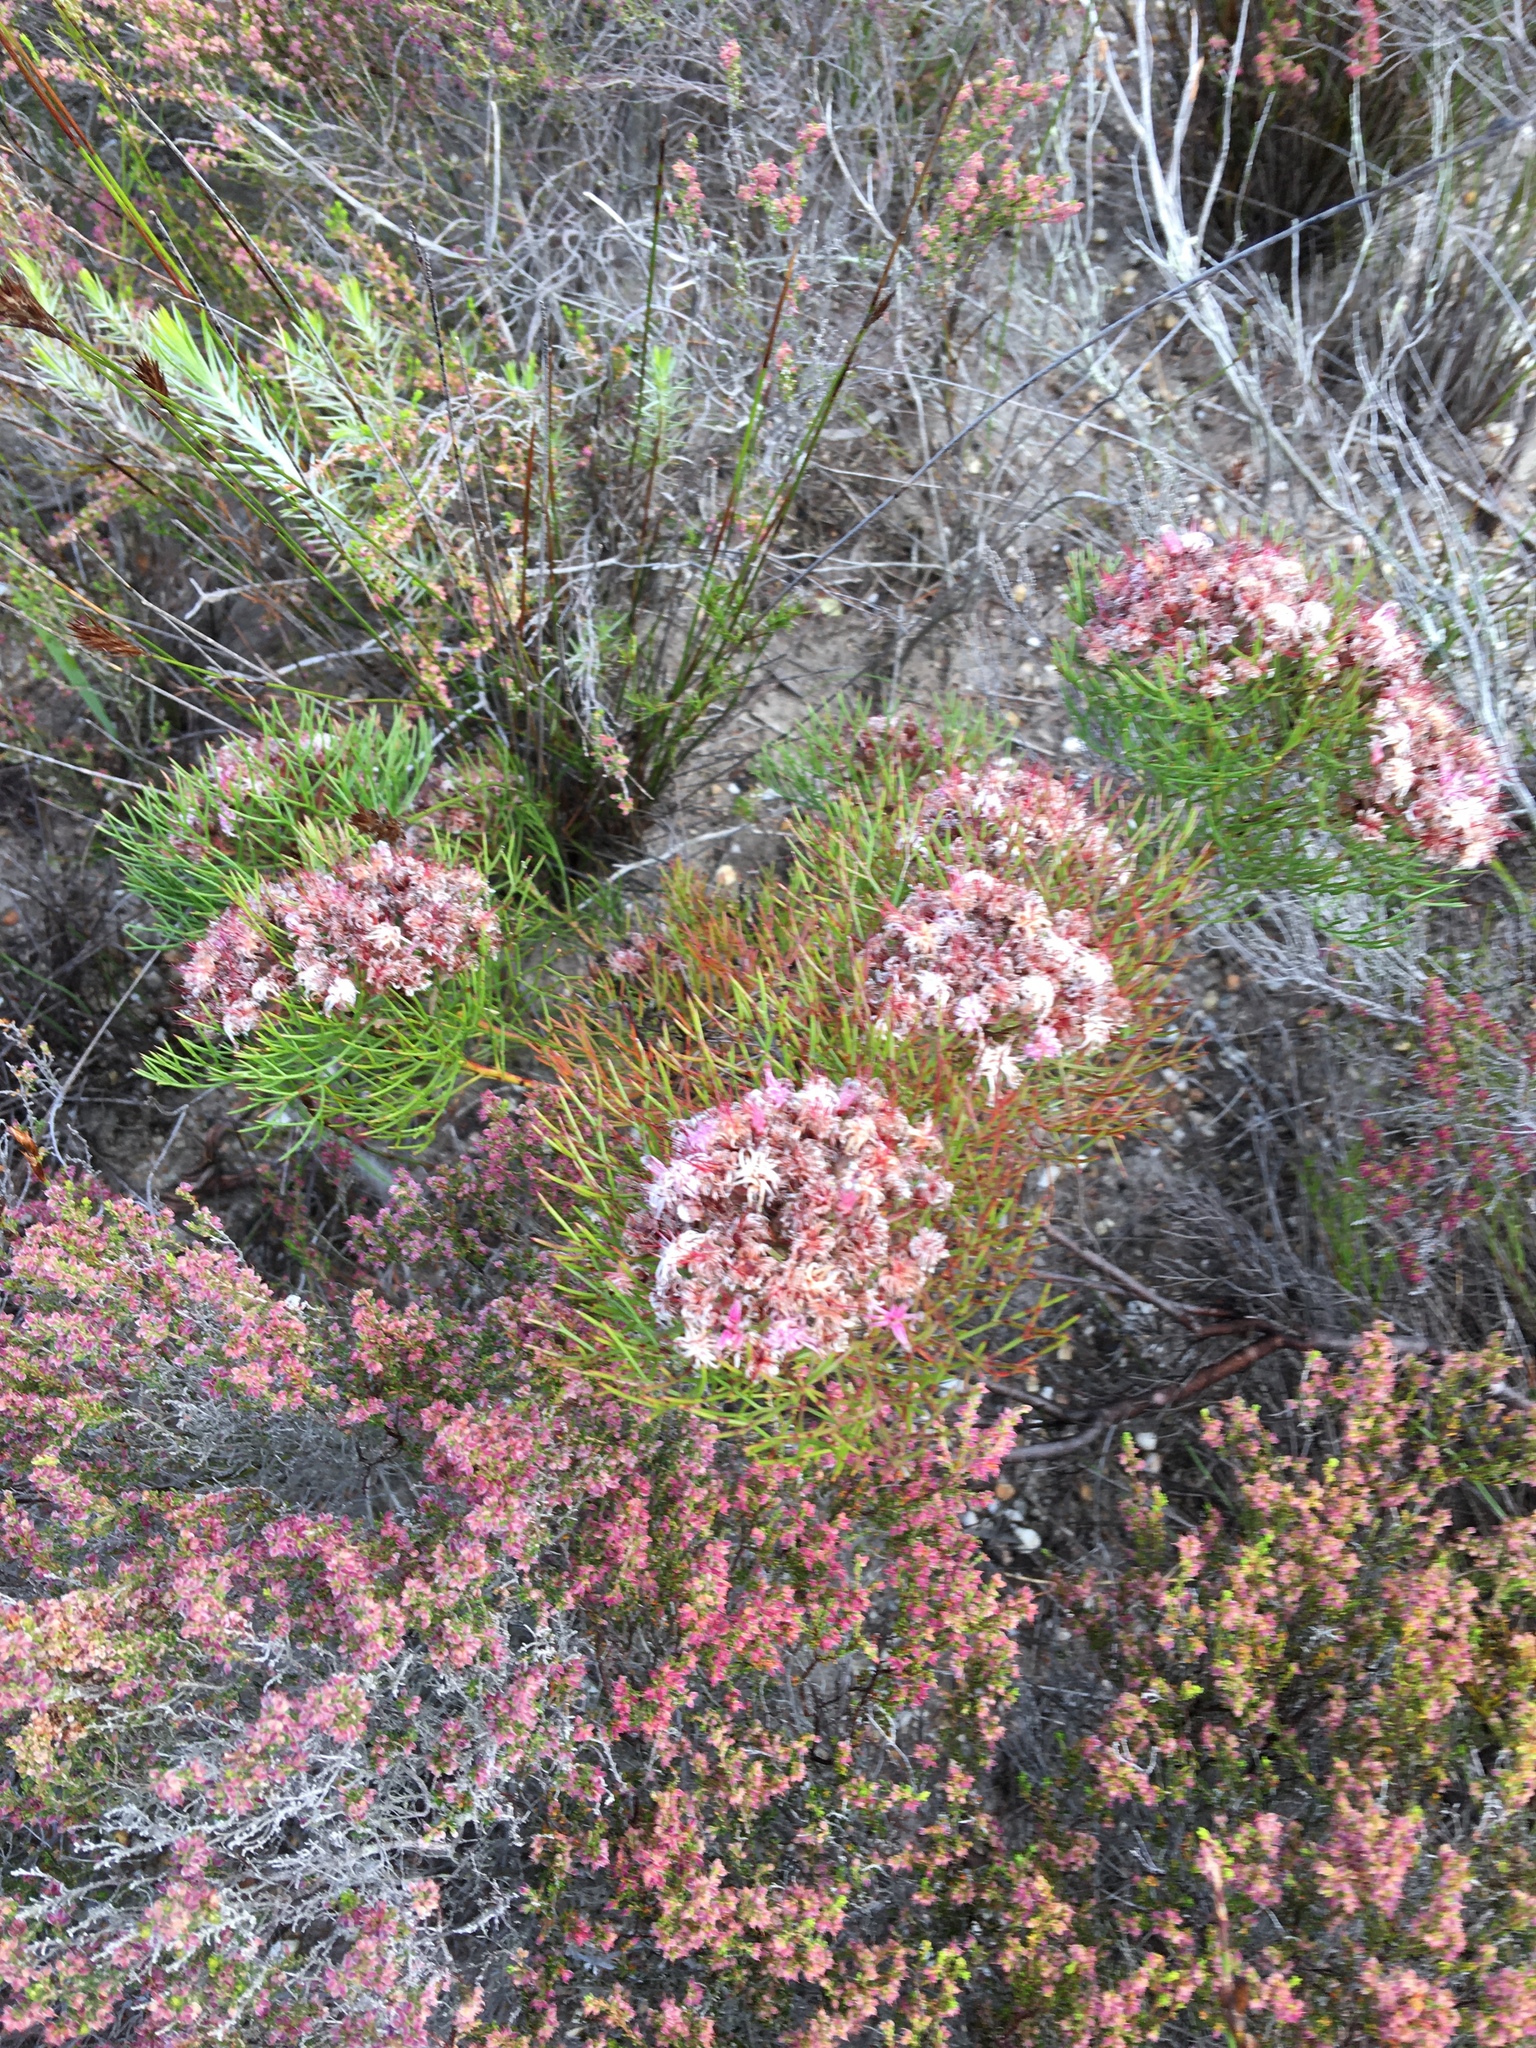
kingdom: Plantae
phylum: Tracheophyta
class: Magnoliopsida
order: Proteales
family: Proteaceae
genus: Serruria
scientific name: Serruria fasciflora
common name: Common pin spiderhead
